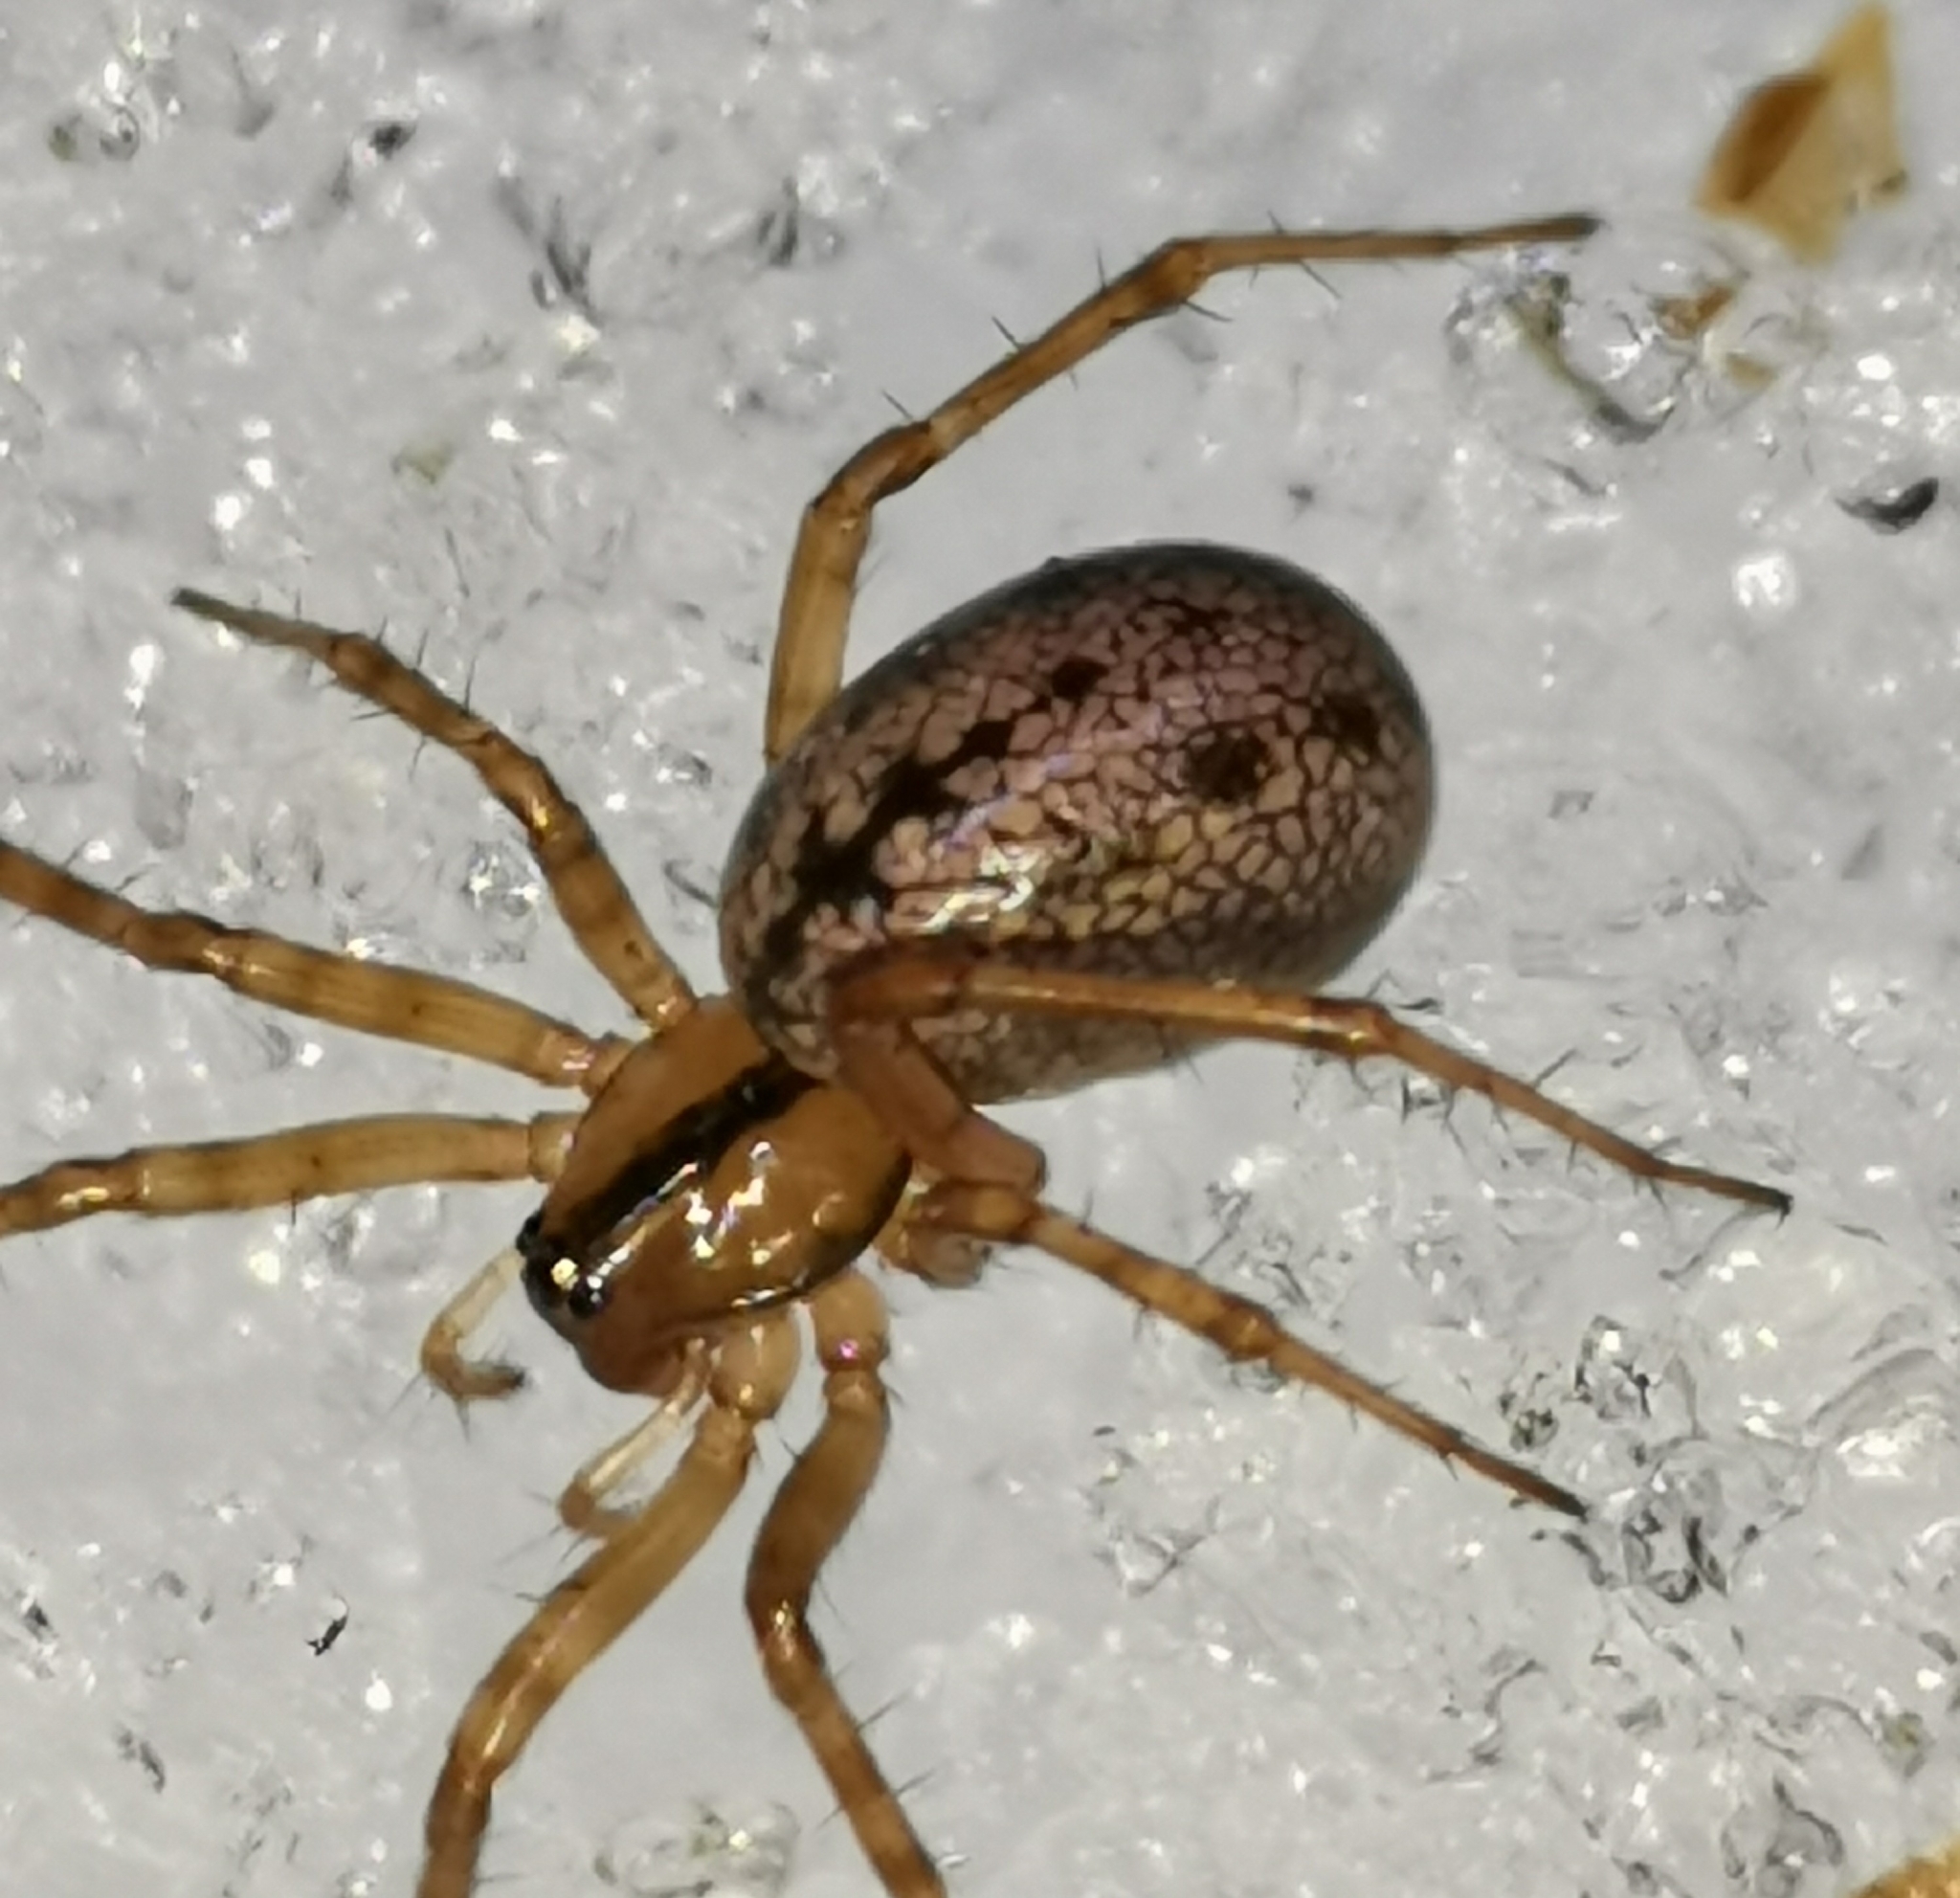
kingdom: Animalia
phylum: Arthropoda
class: Arachnida
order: Araneae
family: Linyphiidae
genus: Stemonyphantes
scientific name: Stemonyphantes lineatus
